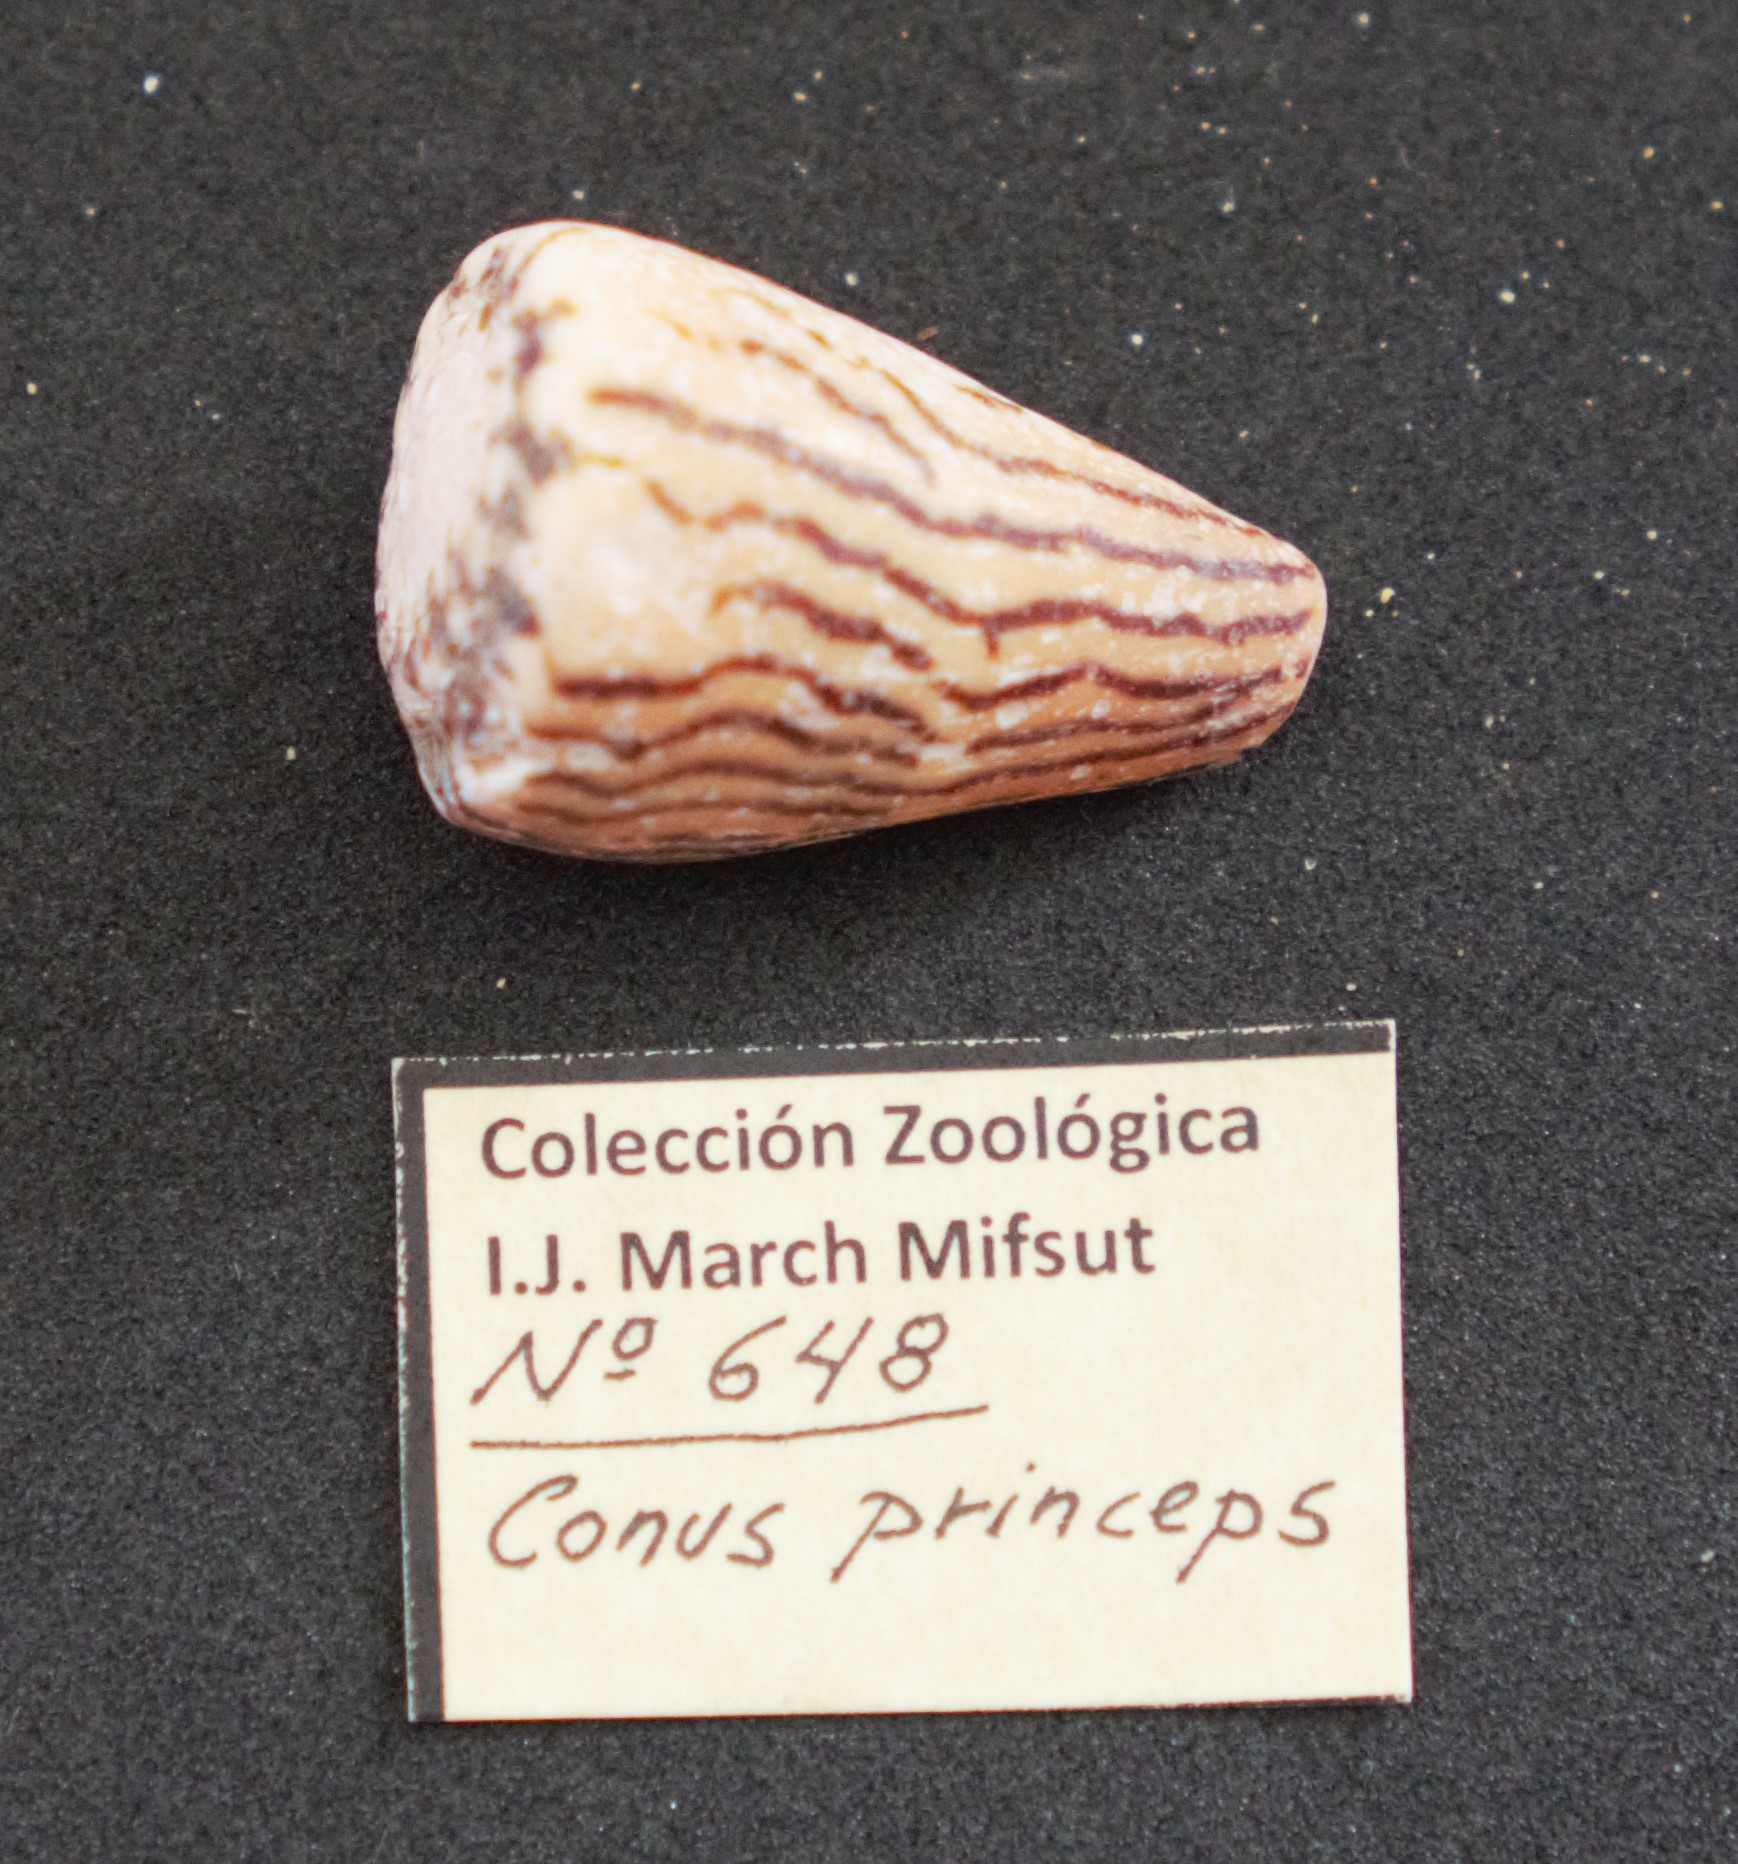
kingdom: Animalia
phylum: Mollusca
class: Gastropoda
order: Neogastropoda
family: Conidae
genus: Conus
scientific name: Conus princeps
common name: Prince cone
